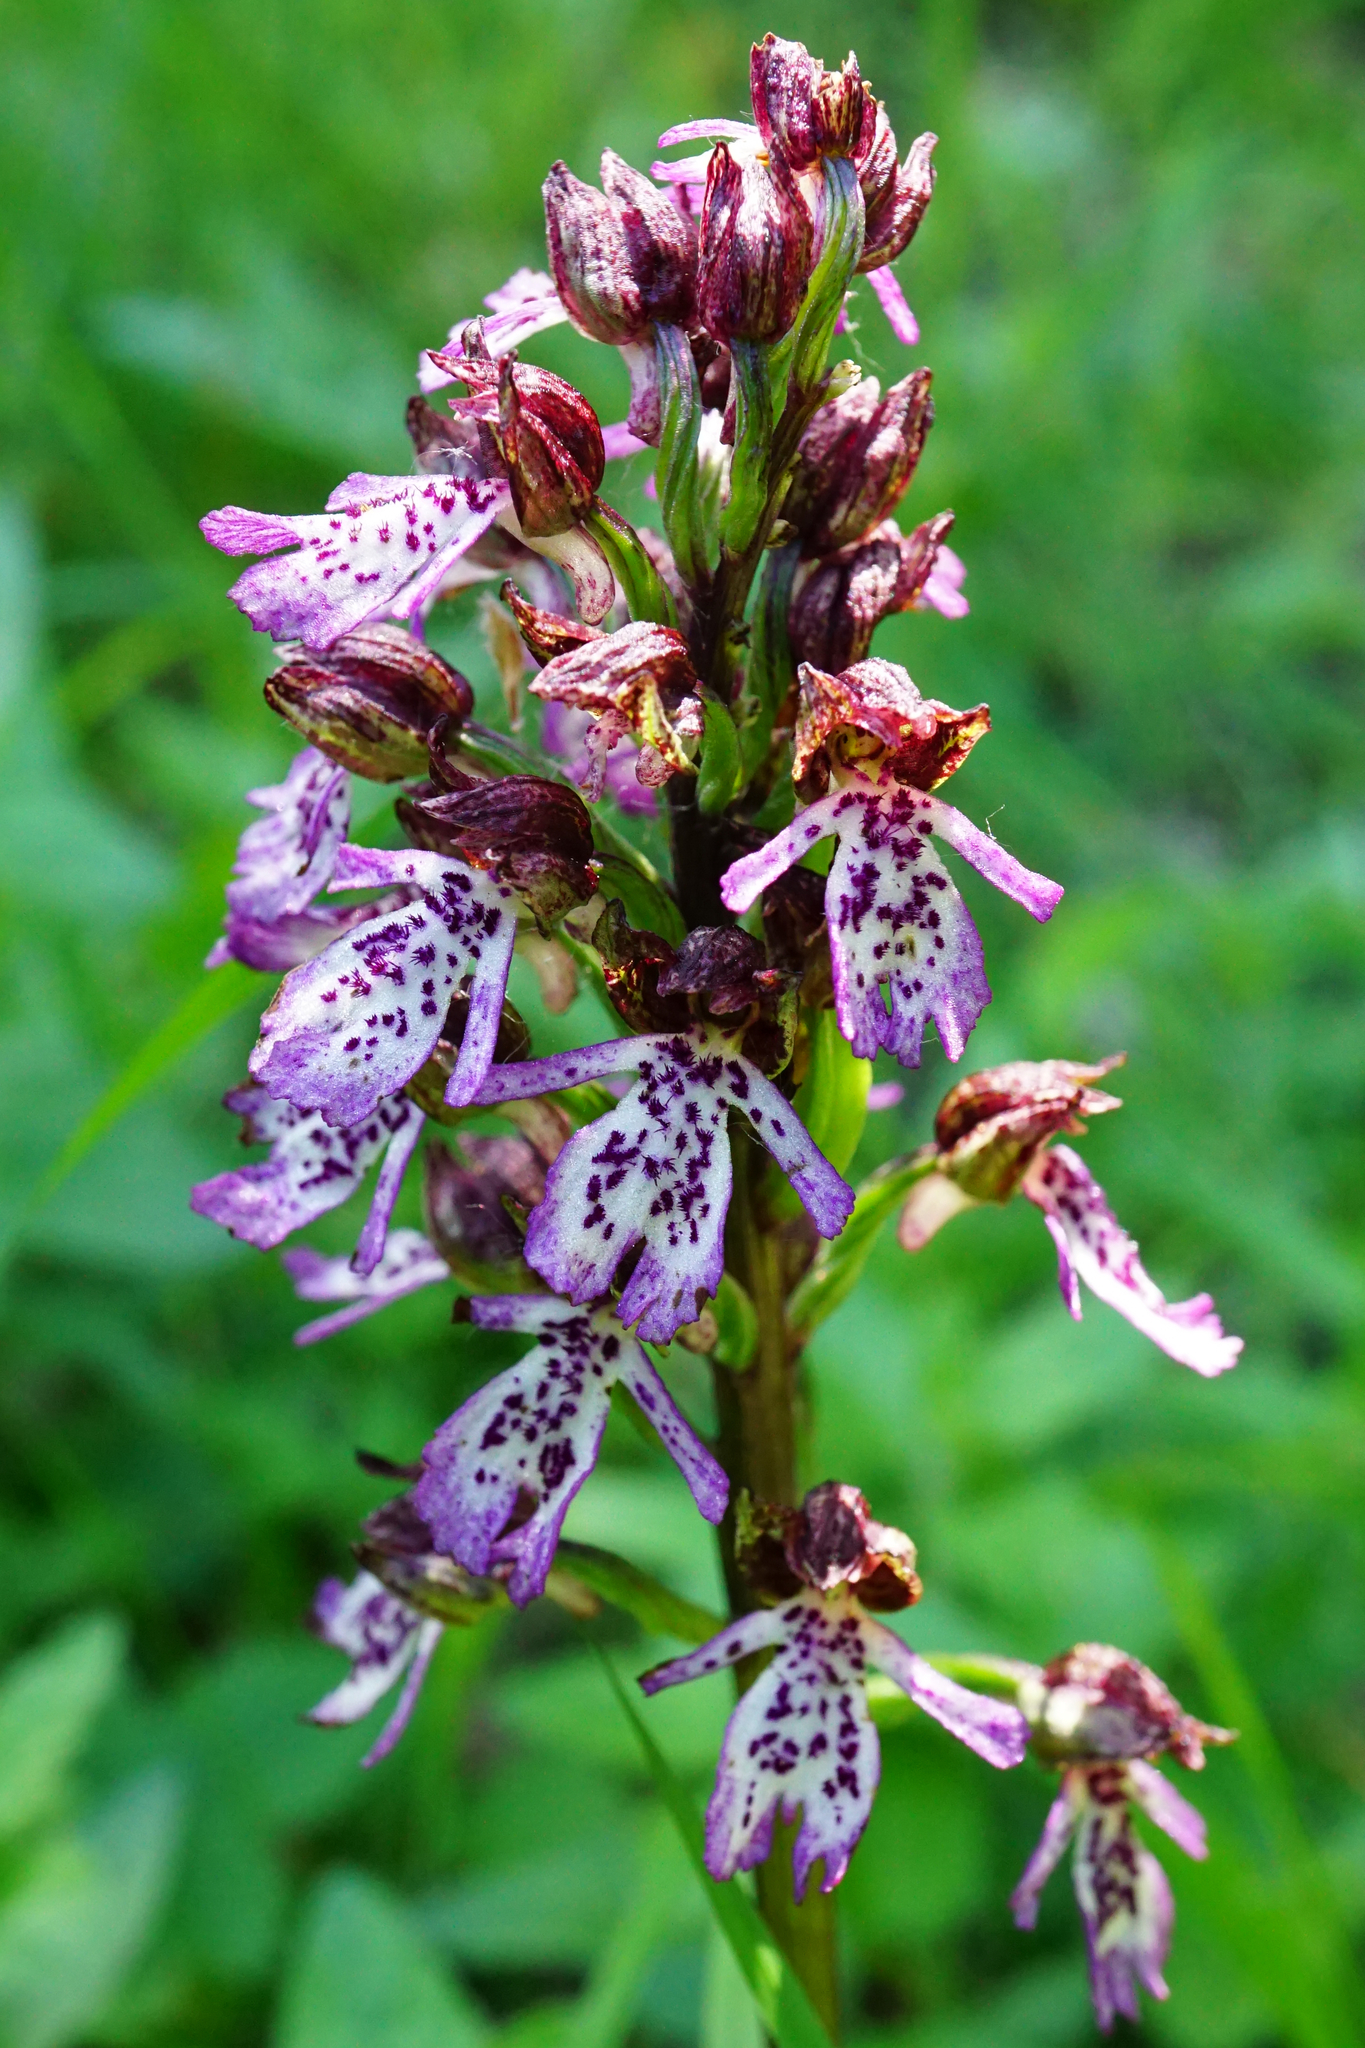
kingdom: Plantae
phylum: Tracheophyta
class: Liliopsida
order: Asparagales
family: Orchidaceae
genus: Orchis
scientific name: Orchis purpurea
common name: Lady orchid
